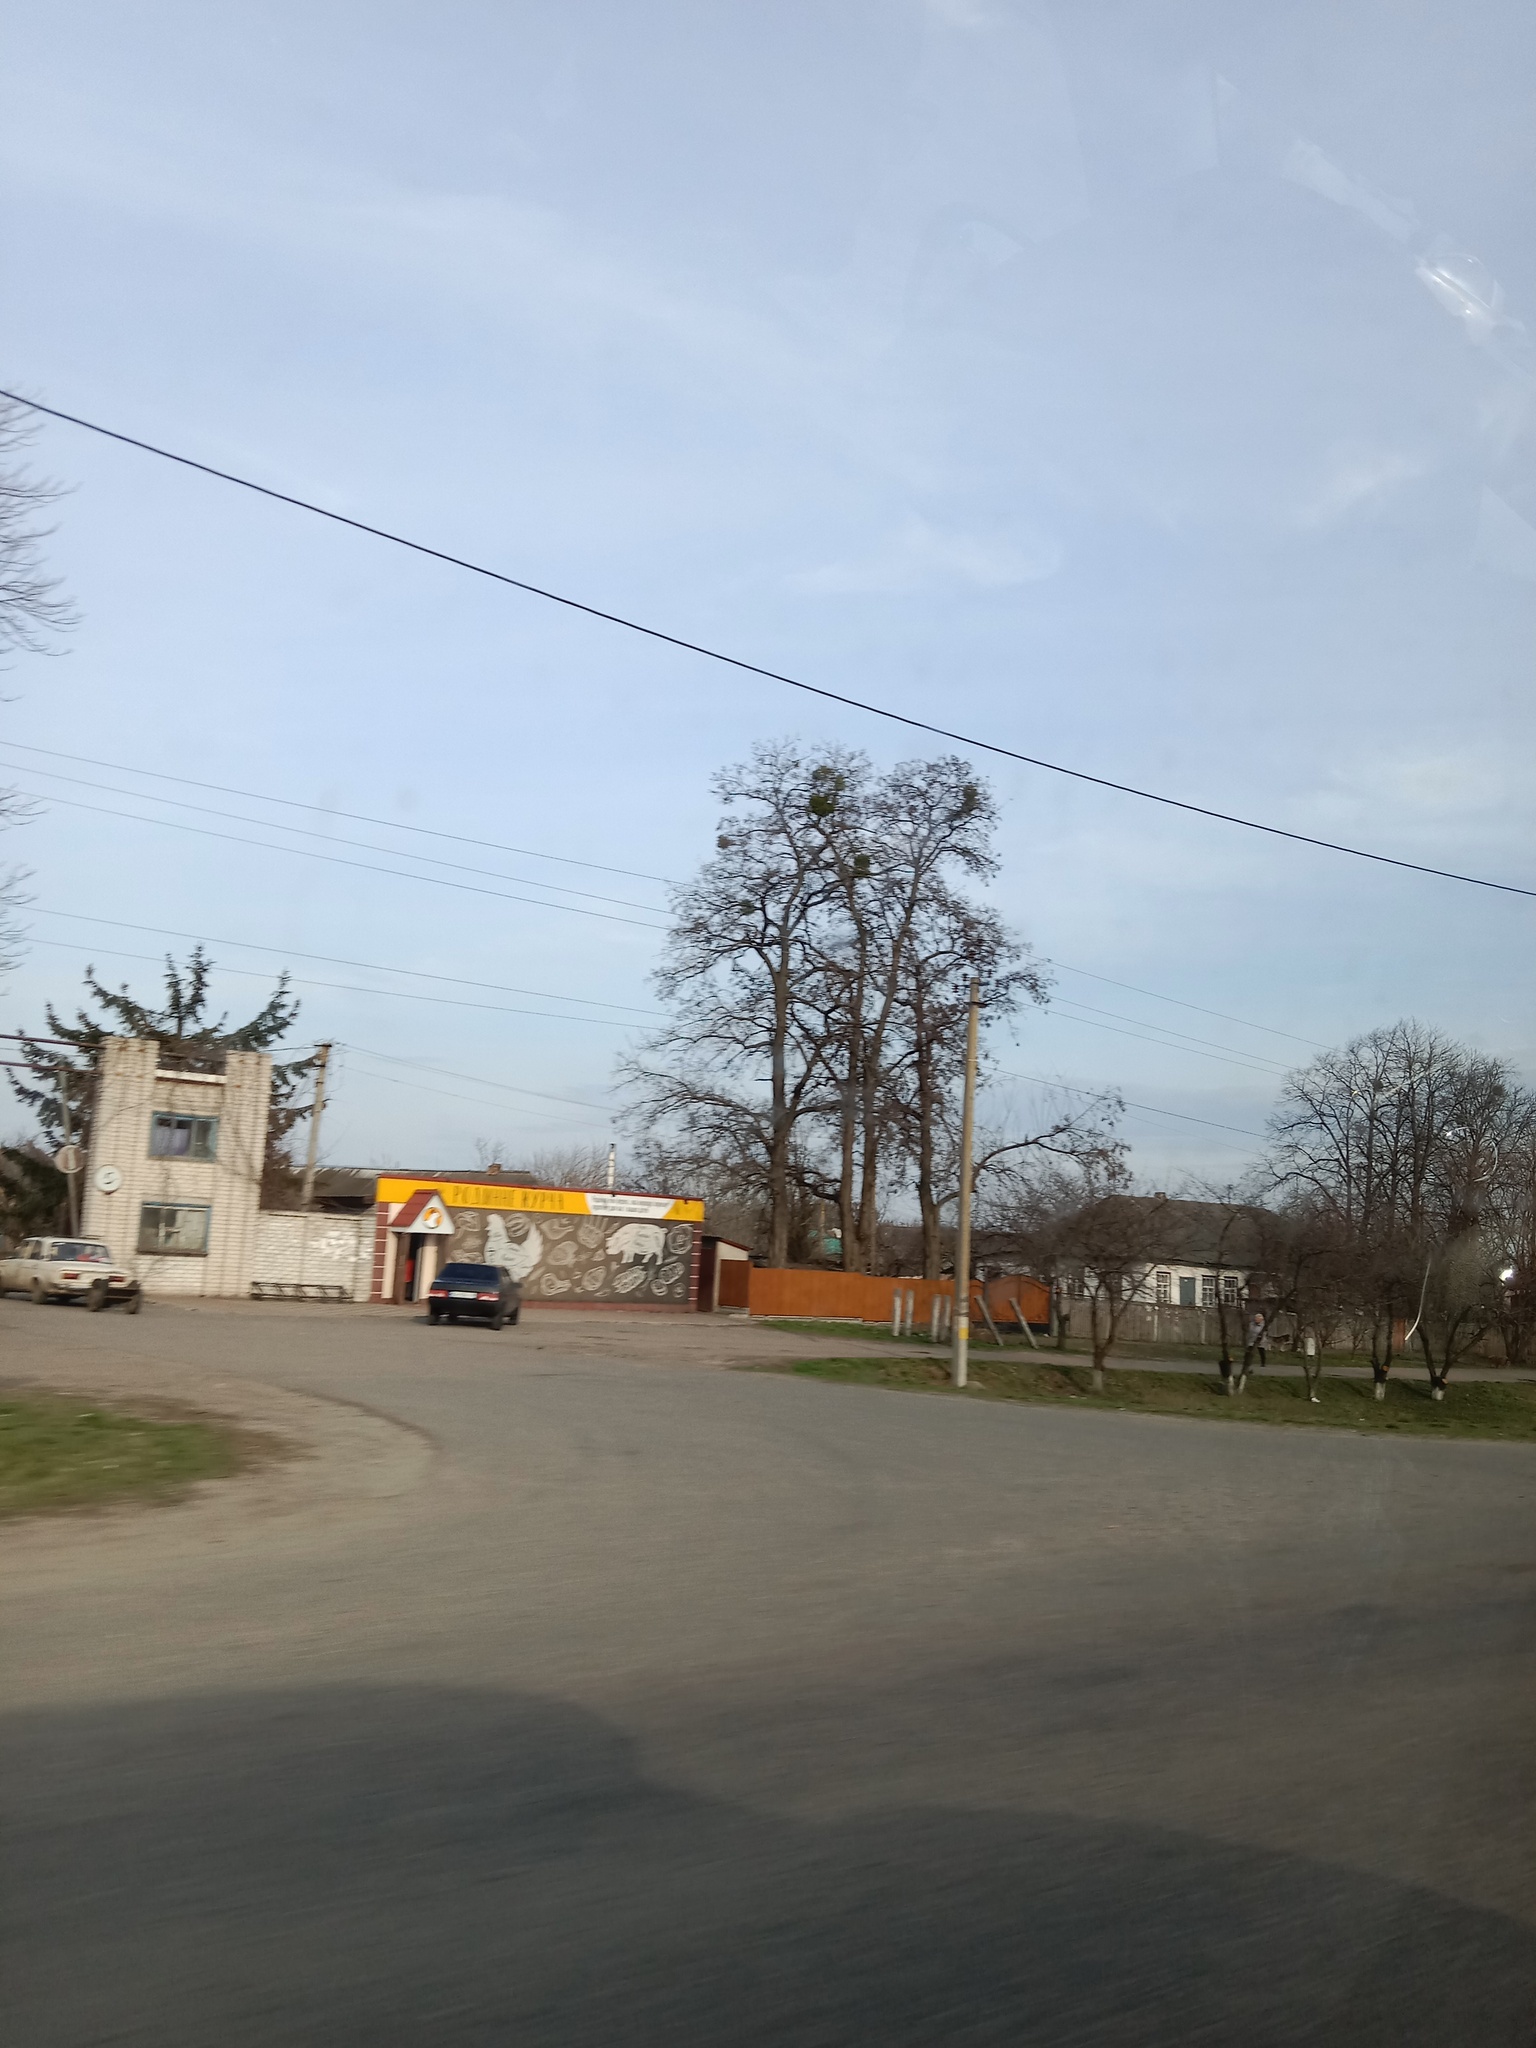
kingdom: Plantae
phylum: Tracheophyta
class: Magnoliopsida
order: Santalales
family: Viscaceae
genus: Viscum
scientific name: Viscum album
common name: Mistletoe
